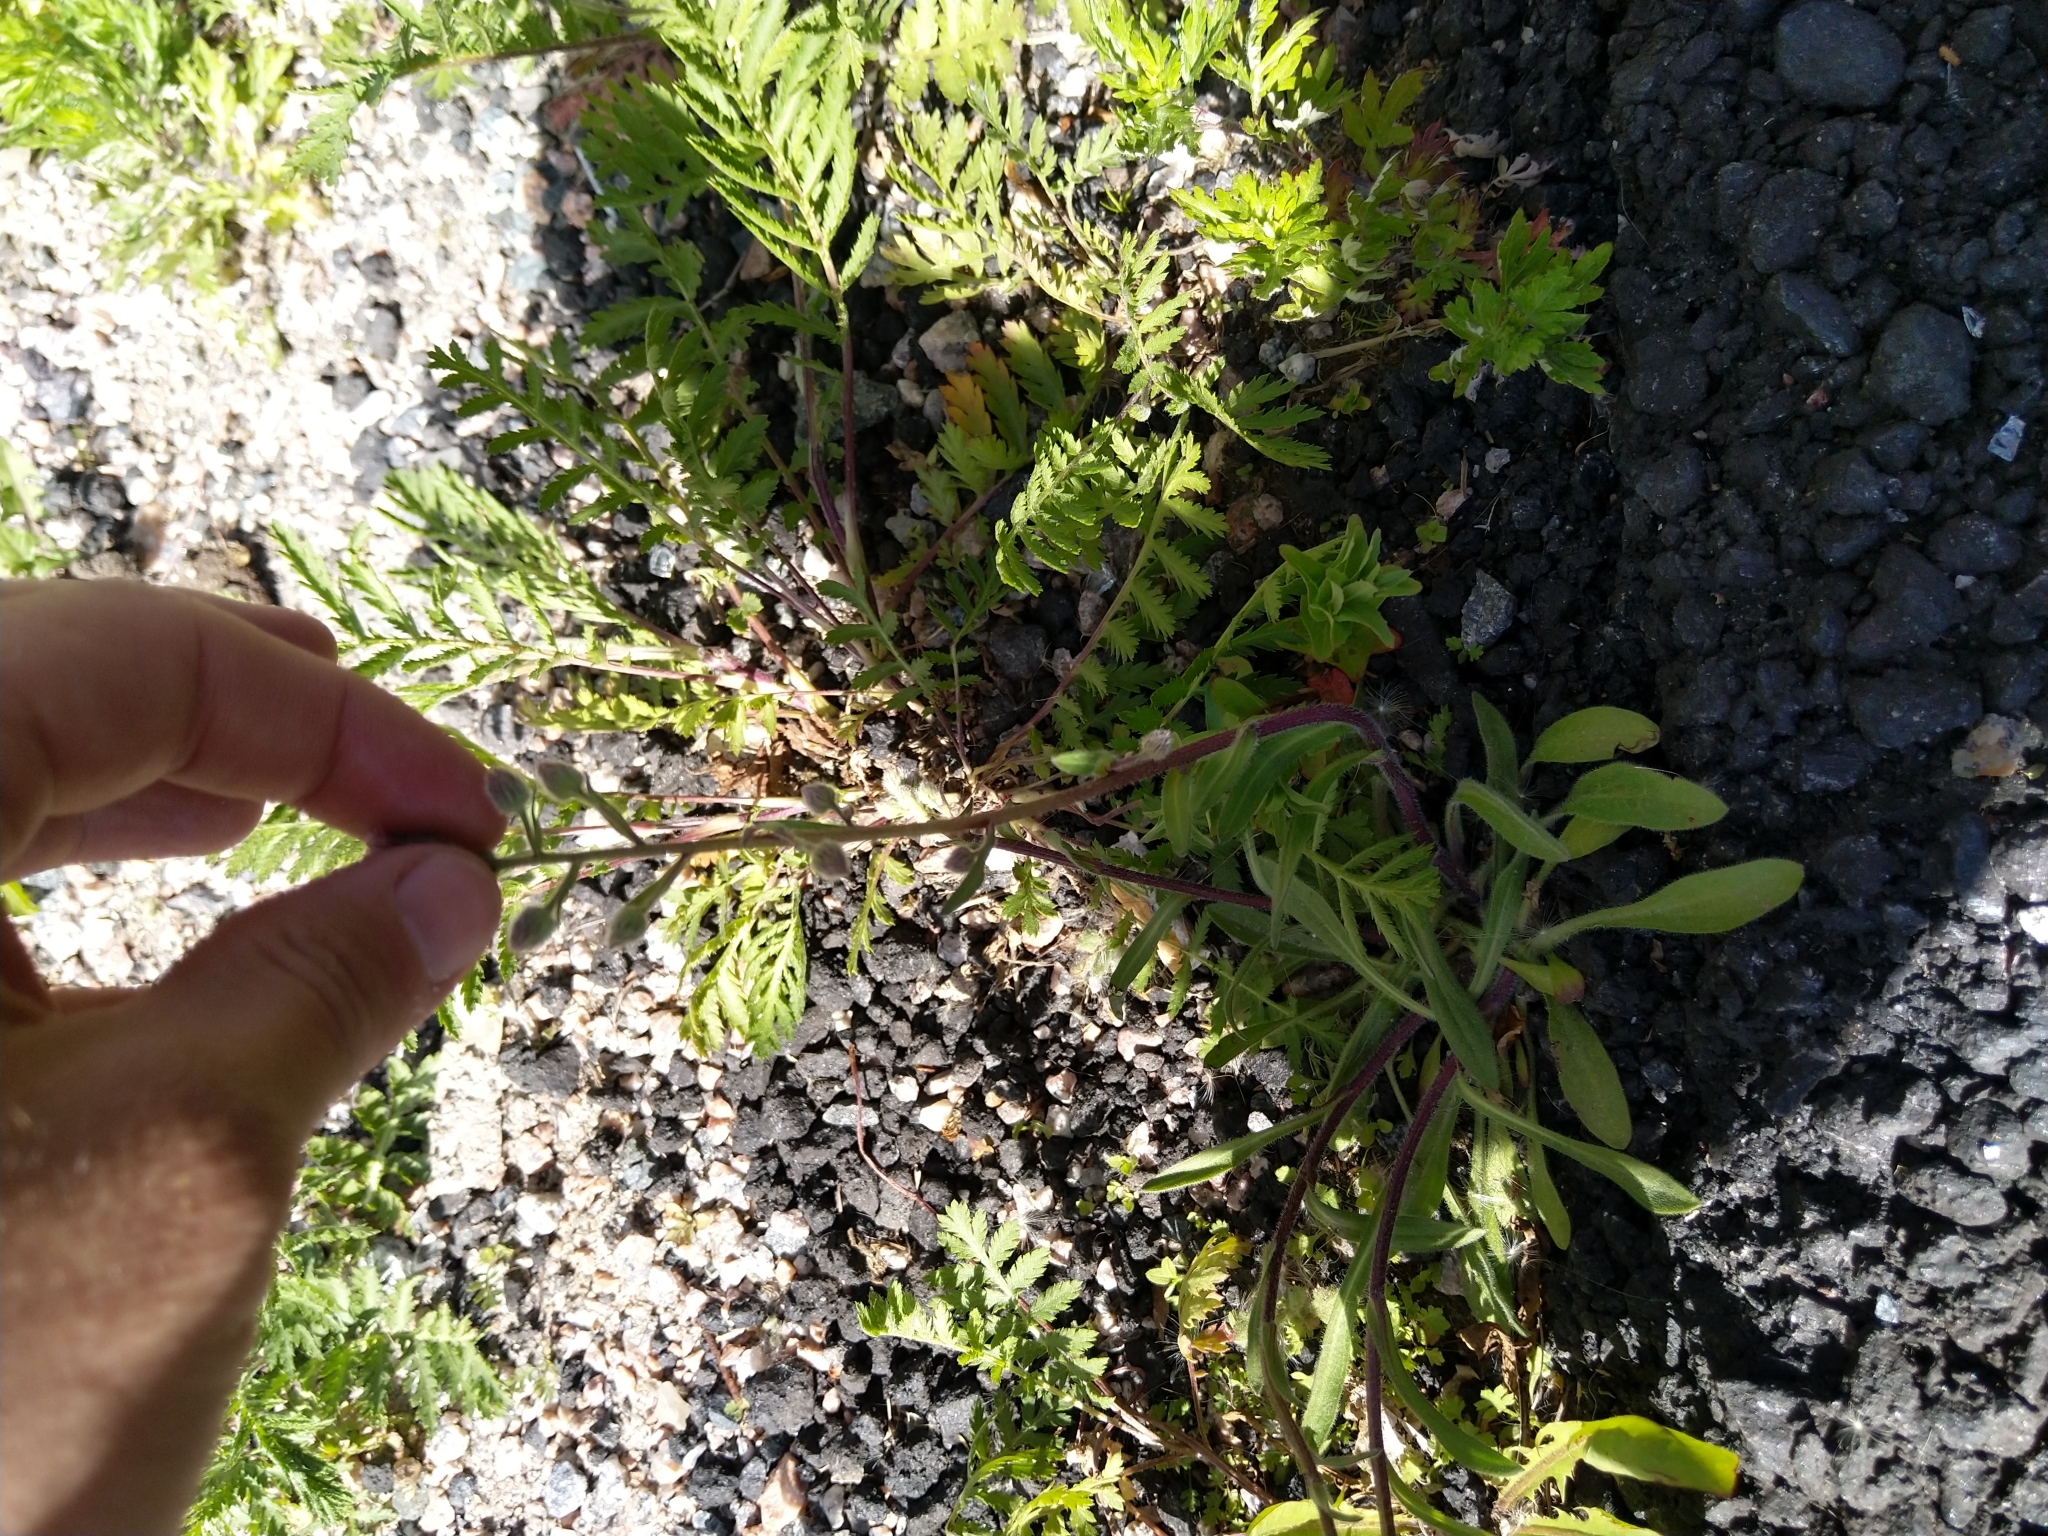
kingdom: Plantae
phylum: Tracheophyta
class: Magnoliopsida
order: Asterales
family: Asteraceae
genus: Erigeron
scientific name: Erigeron acris
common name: Blue fleabane
